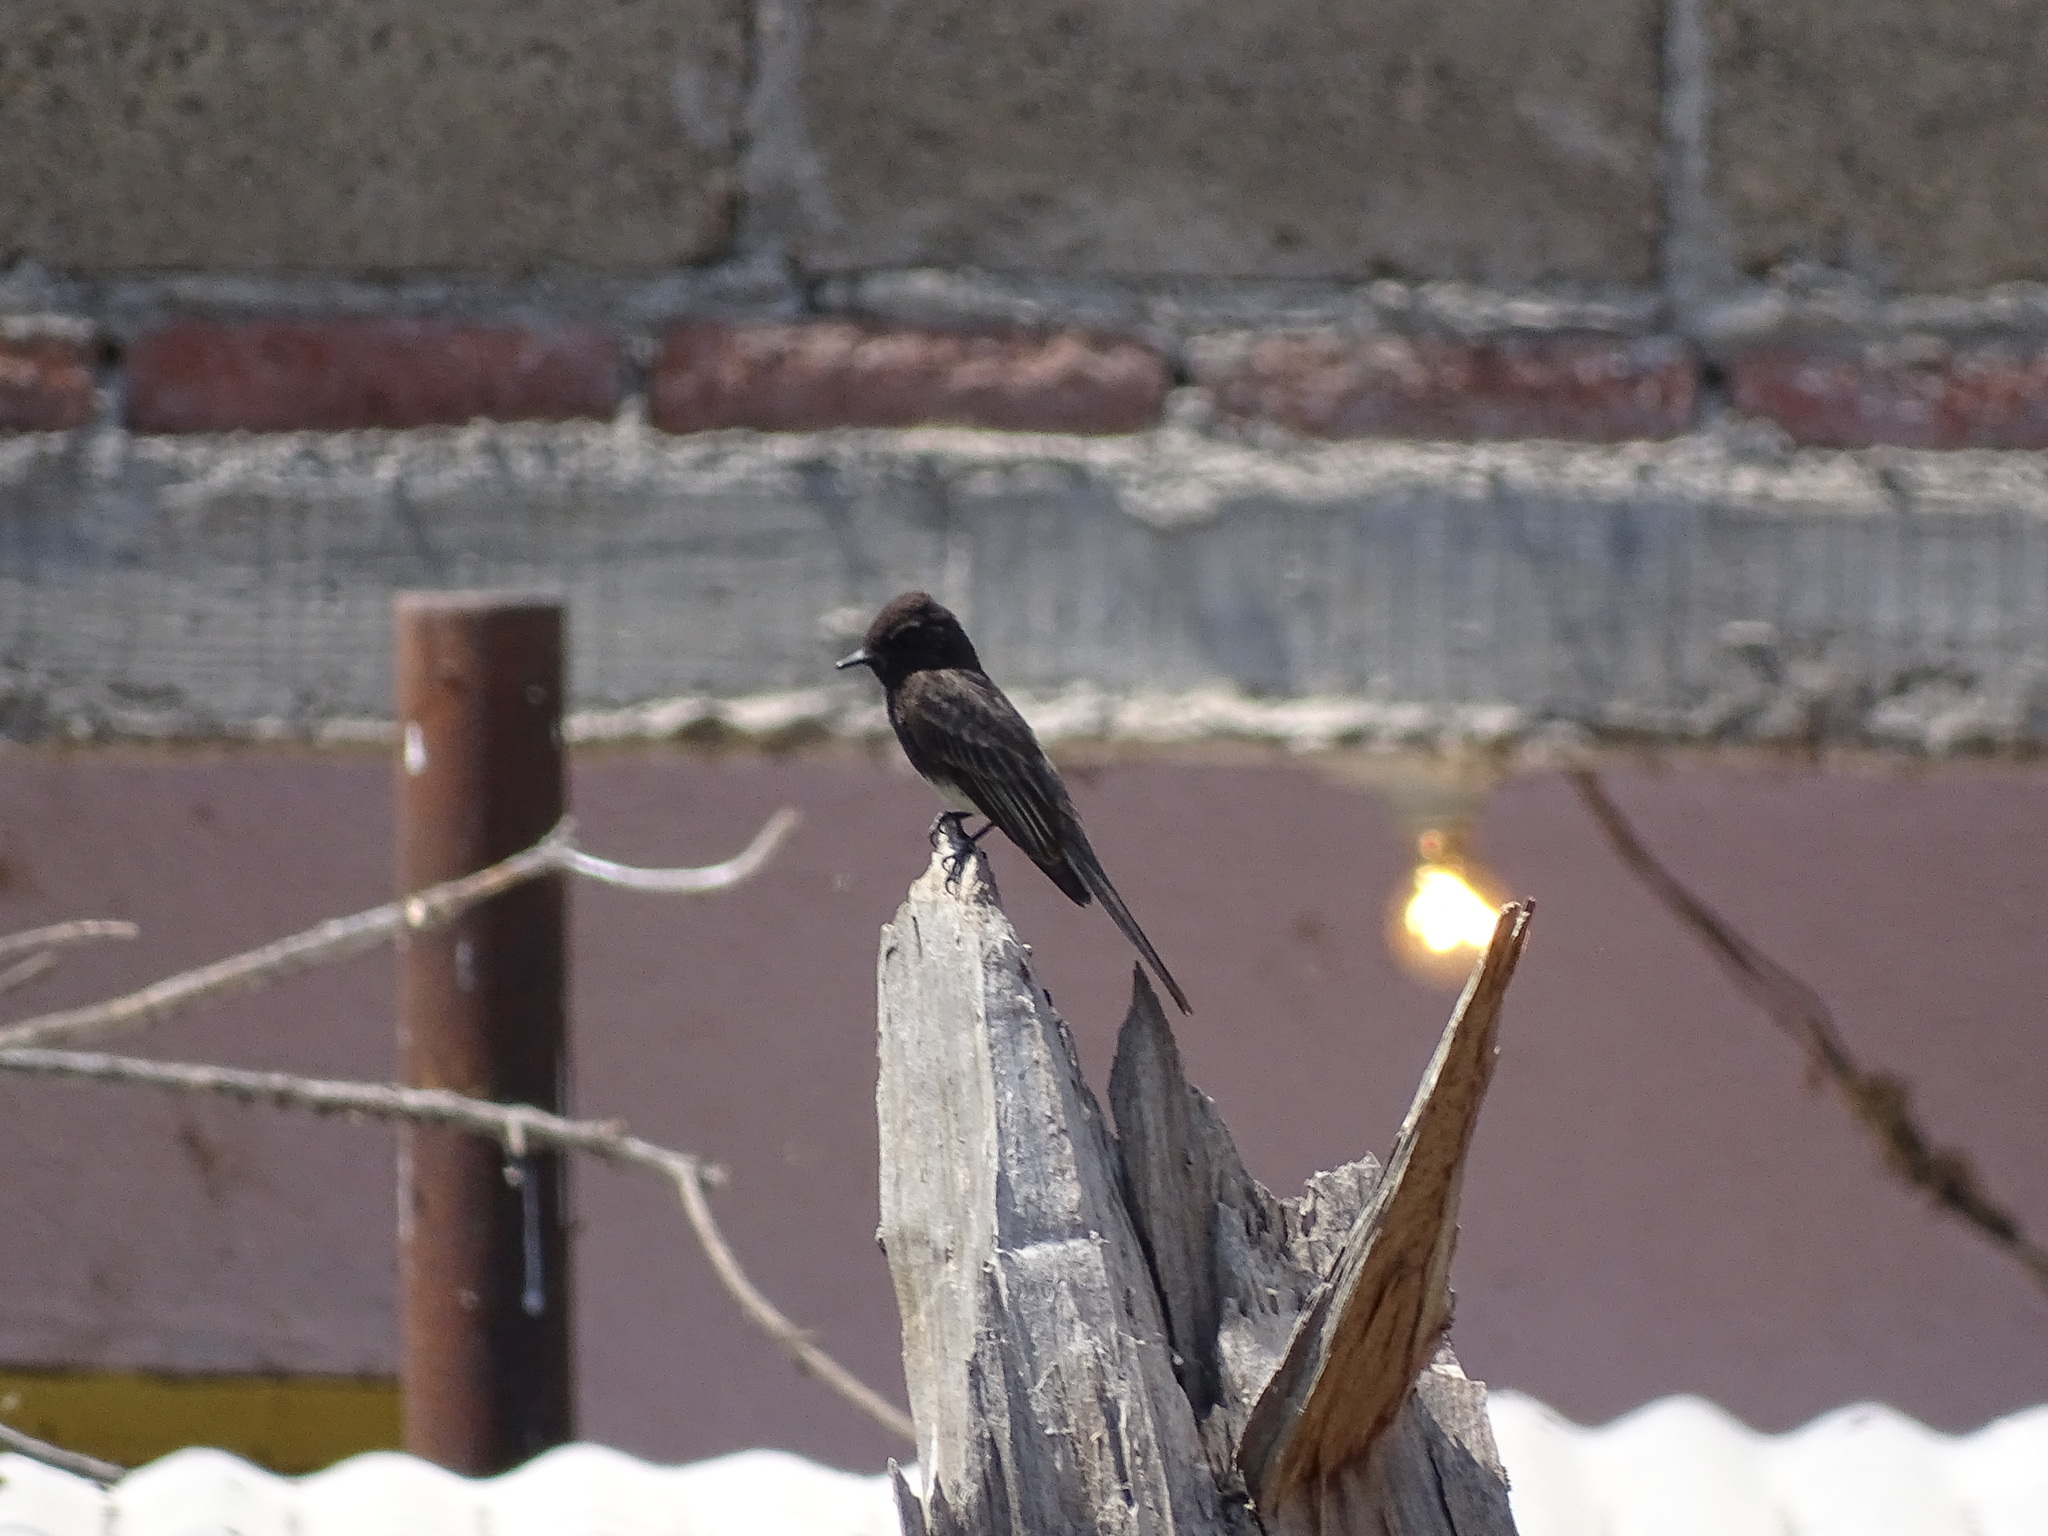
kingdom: Animalia
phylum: Chordata
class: Aves
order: Passeriformes
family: Tyrannidae
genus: Sayornis
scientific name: Sayornis nigricans
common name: Black phoebe
